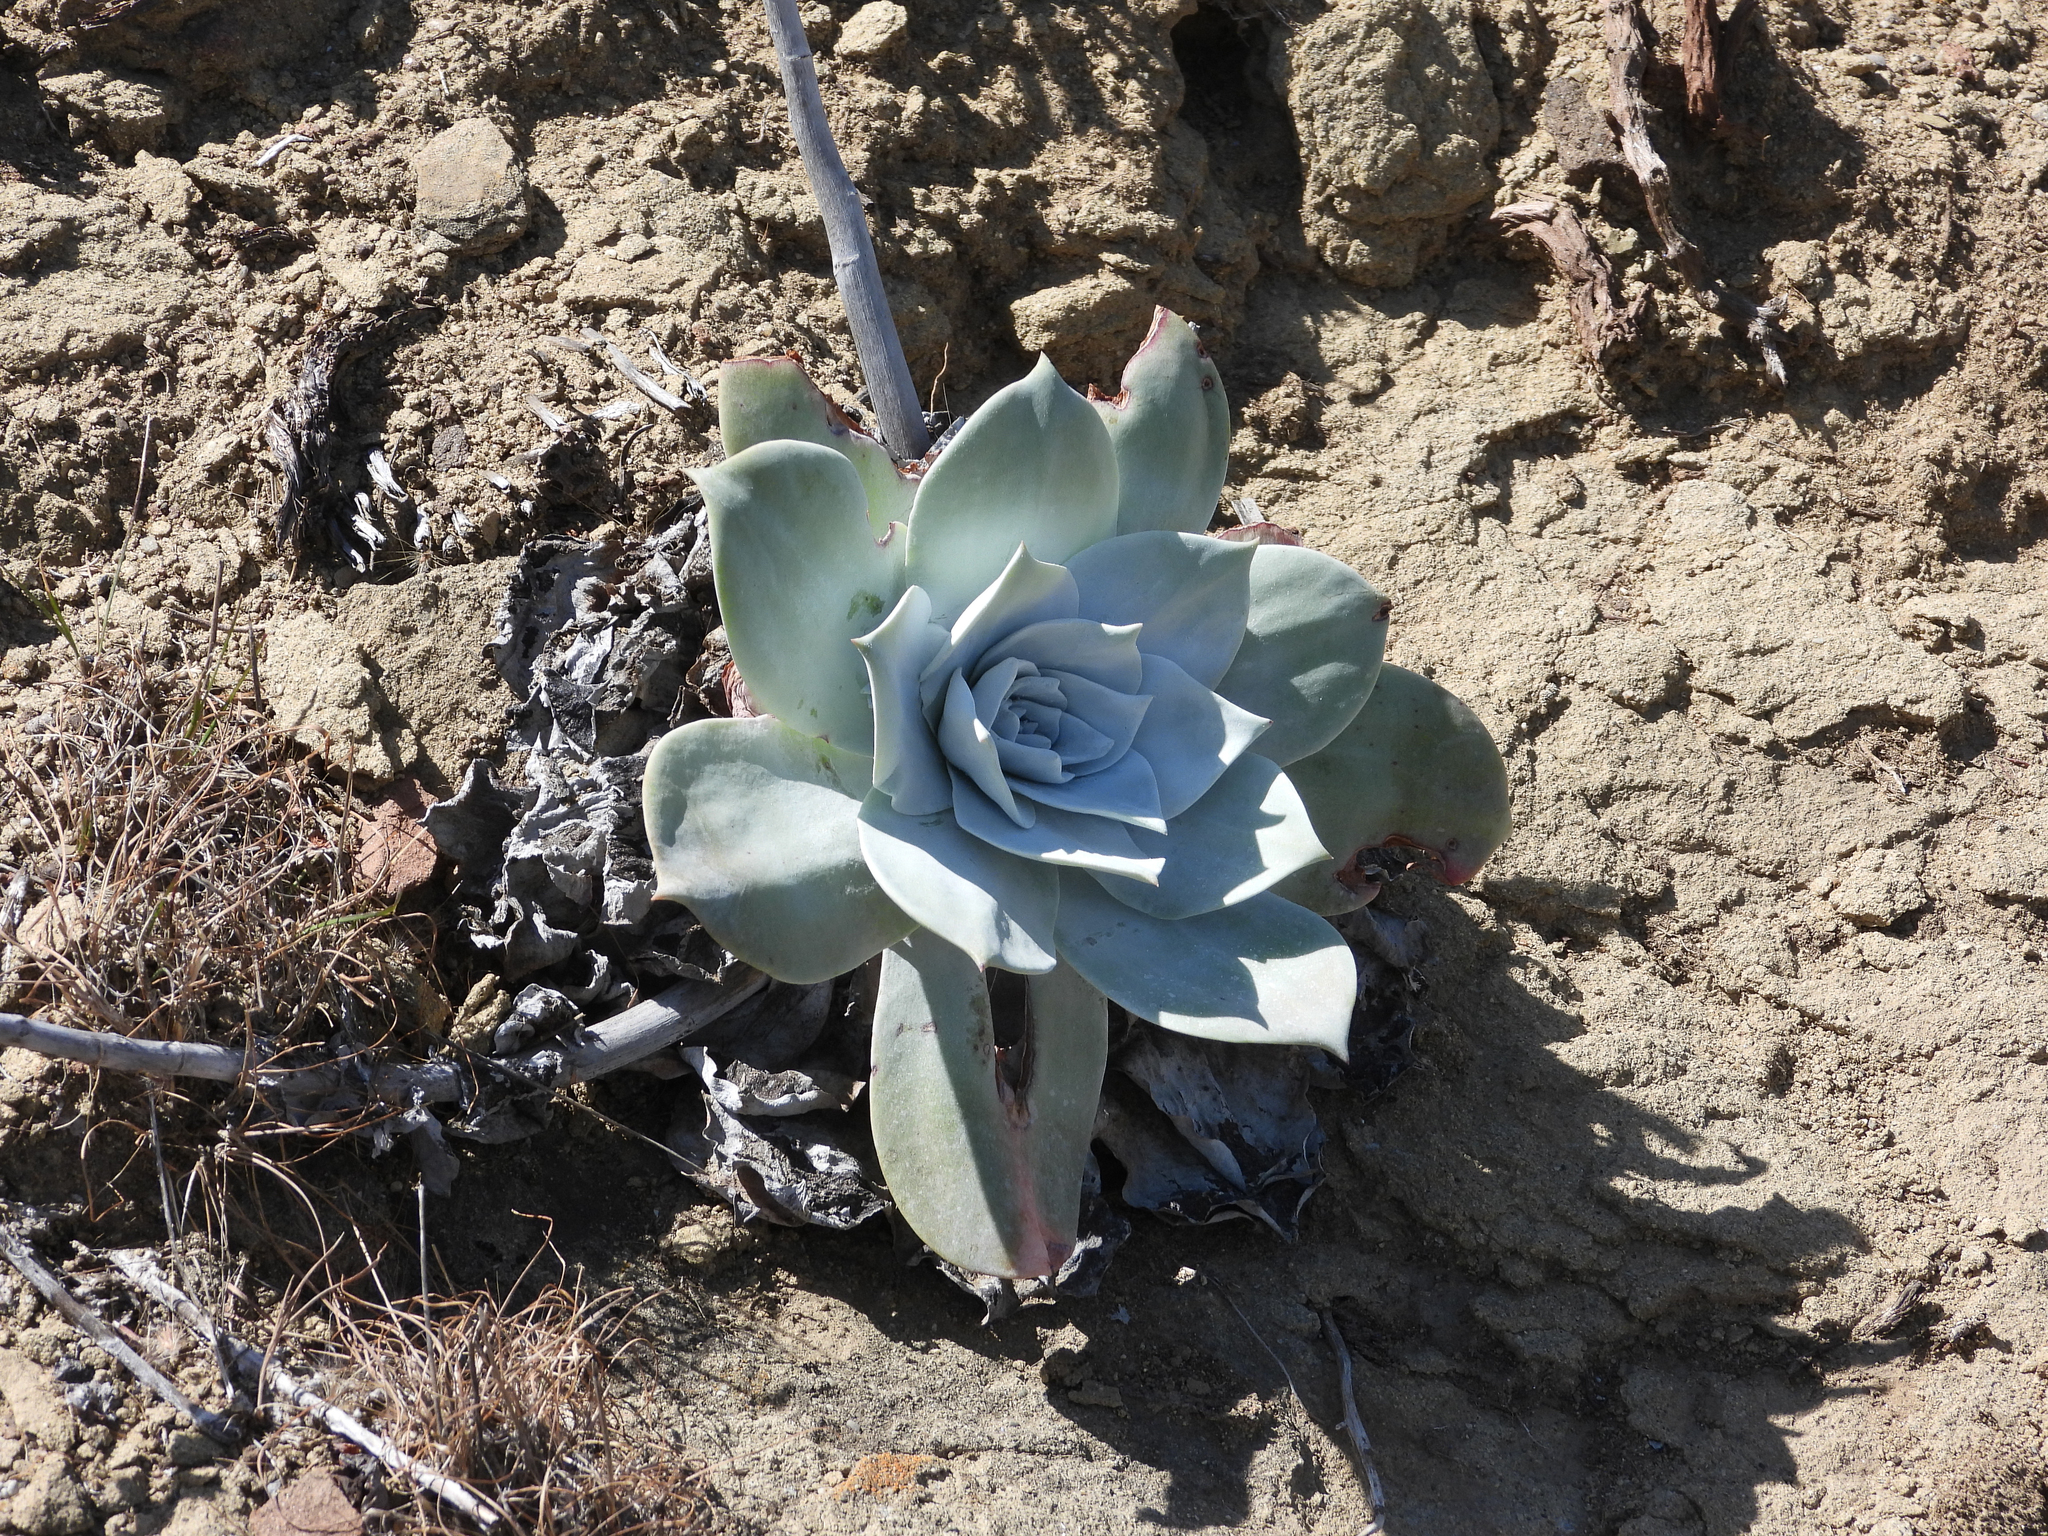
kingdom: Plantae
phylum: Tracheophyta
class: Magnoliopsida
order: Saxifragales
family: Crassulaceae
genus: Dudleya
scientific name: Dudleya pulverulenta
